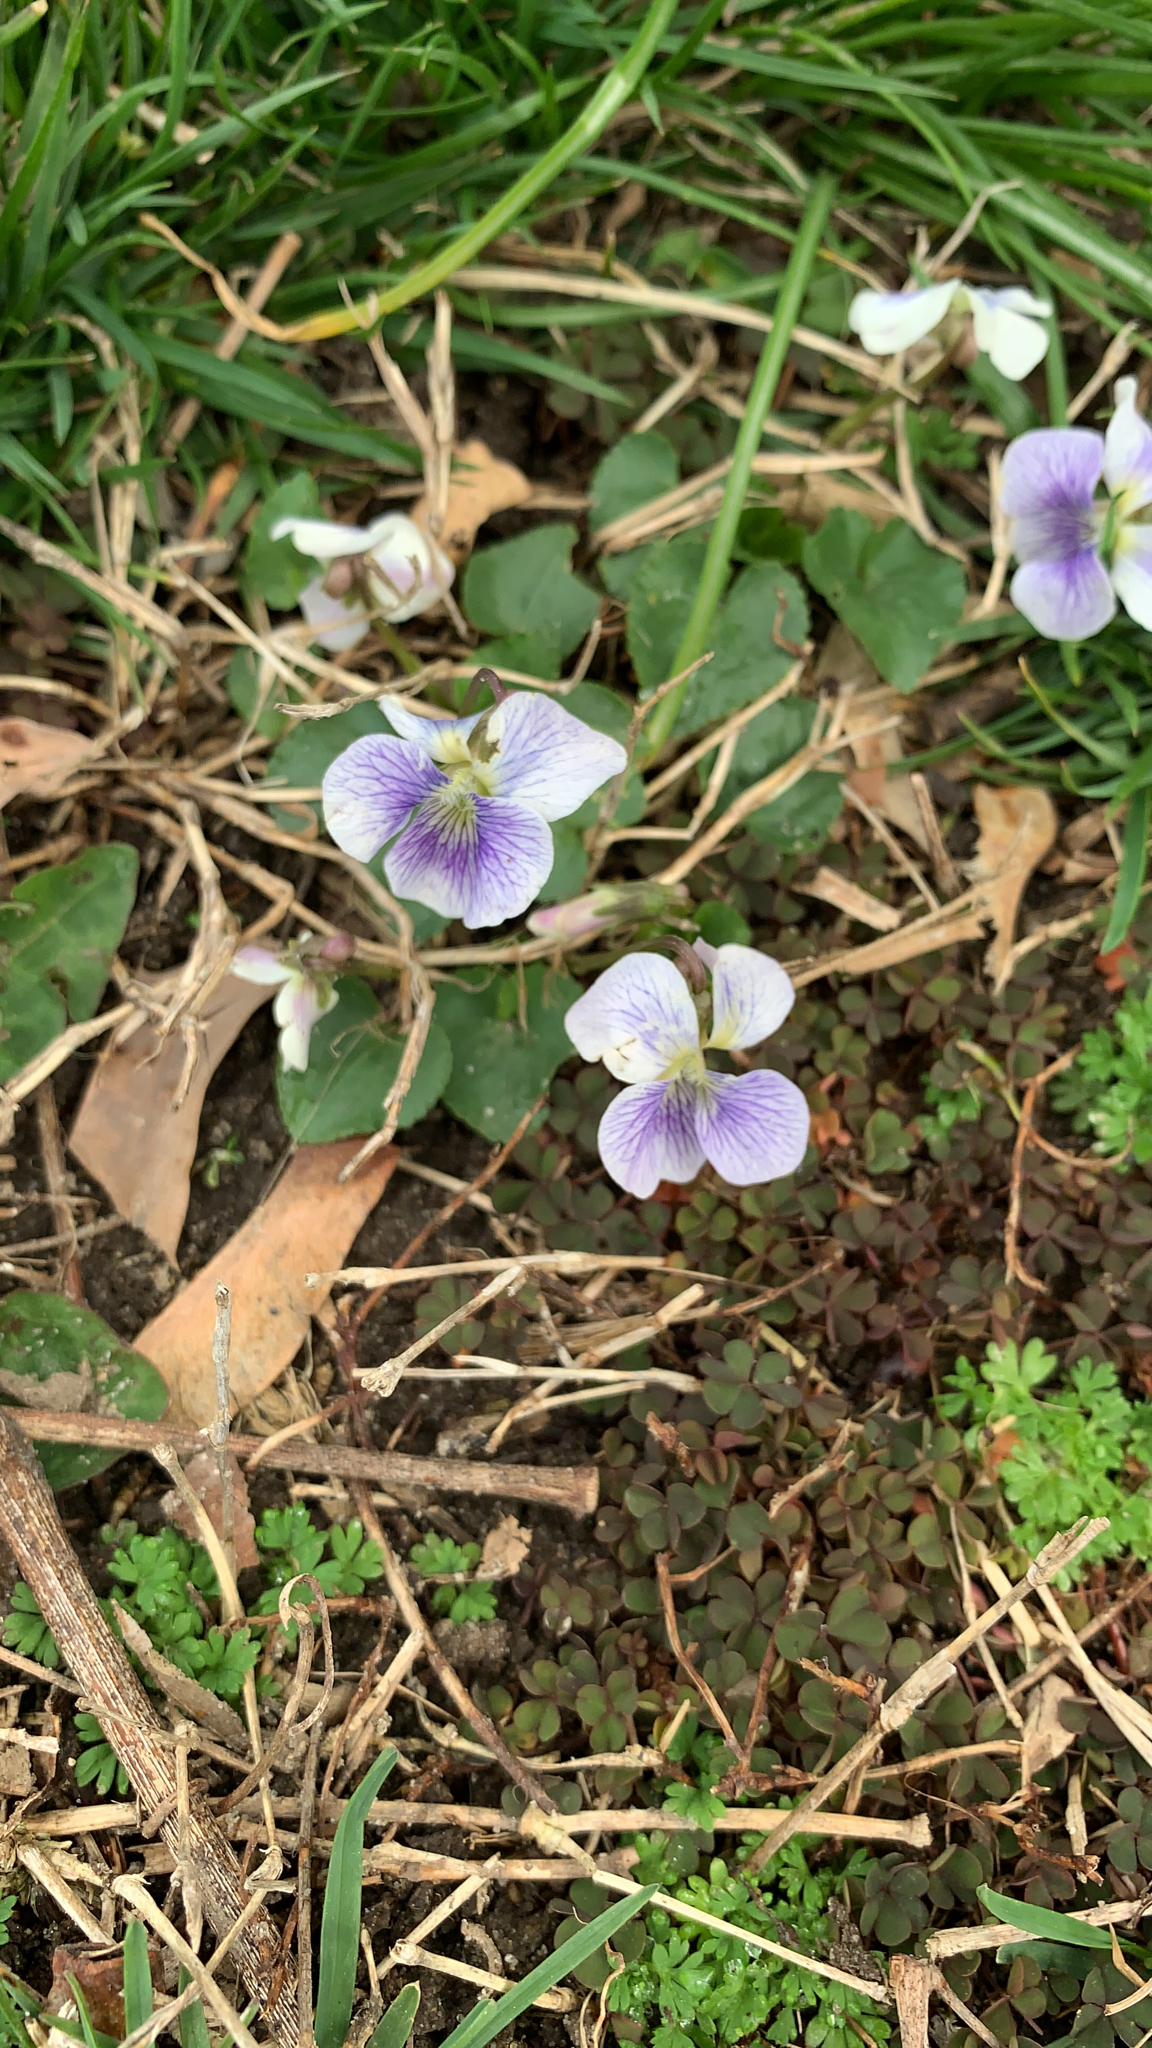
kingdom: Plantae
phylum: Tracheophyta
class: Magnoliopsida
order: Malpighiales
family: Violaceae
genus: Viola
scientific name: Viola sororia
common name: Dooryard violet
